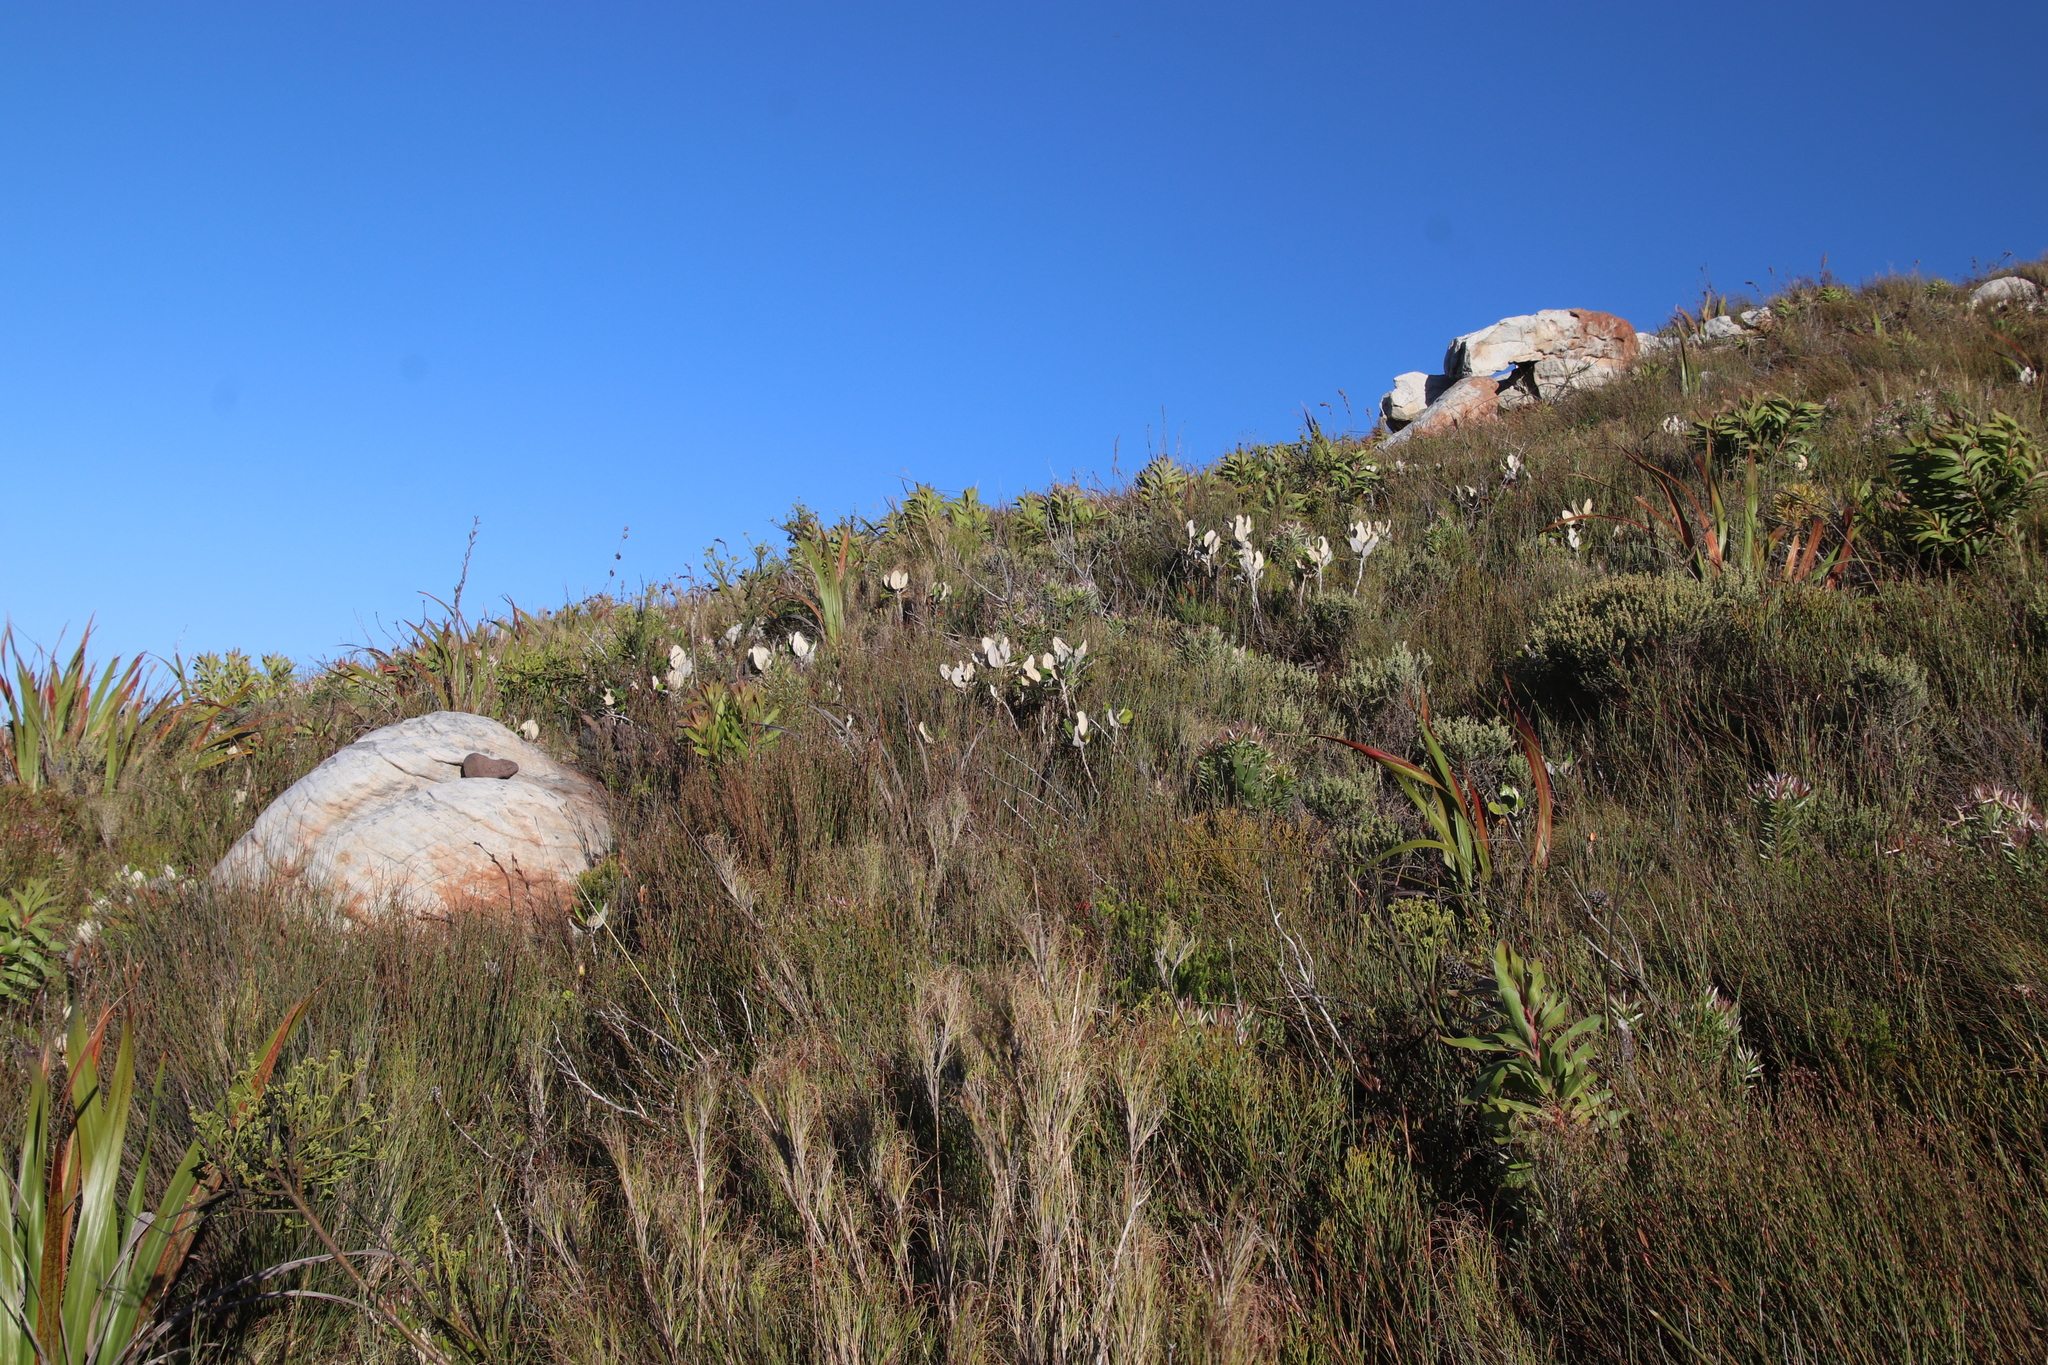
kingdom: Plantae
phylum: Tracheophyta
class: Magnoliopsida
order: Asterales
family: Asteraceae
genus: Capelio
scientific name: Capelio tabularis
